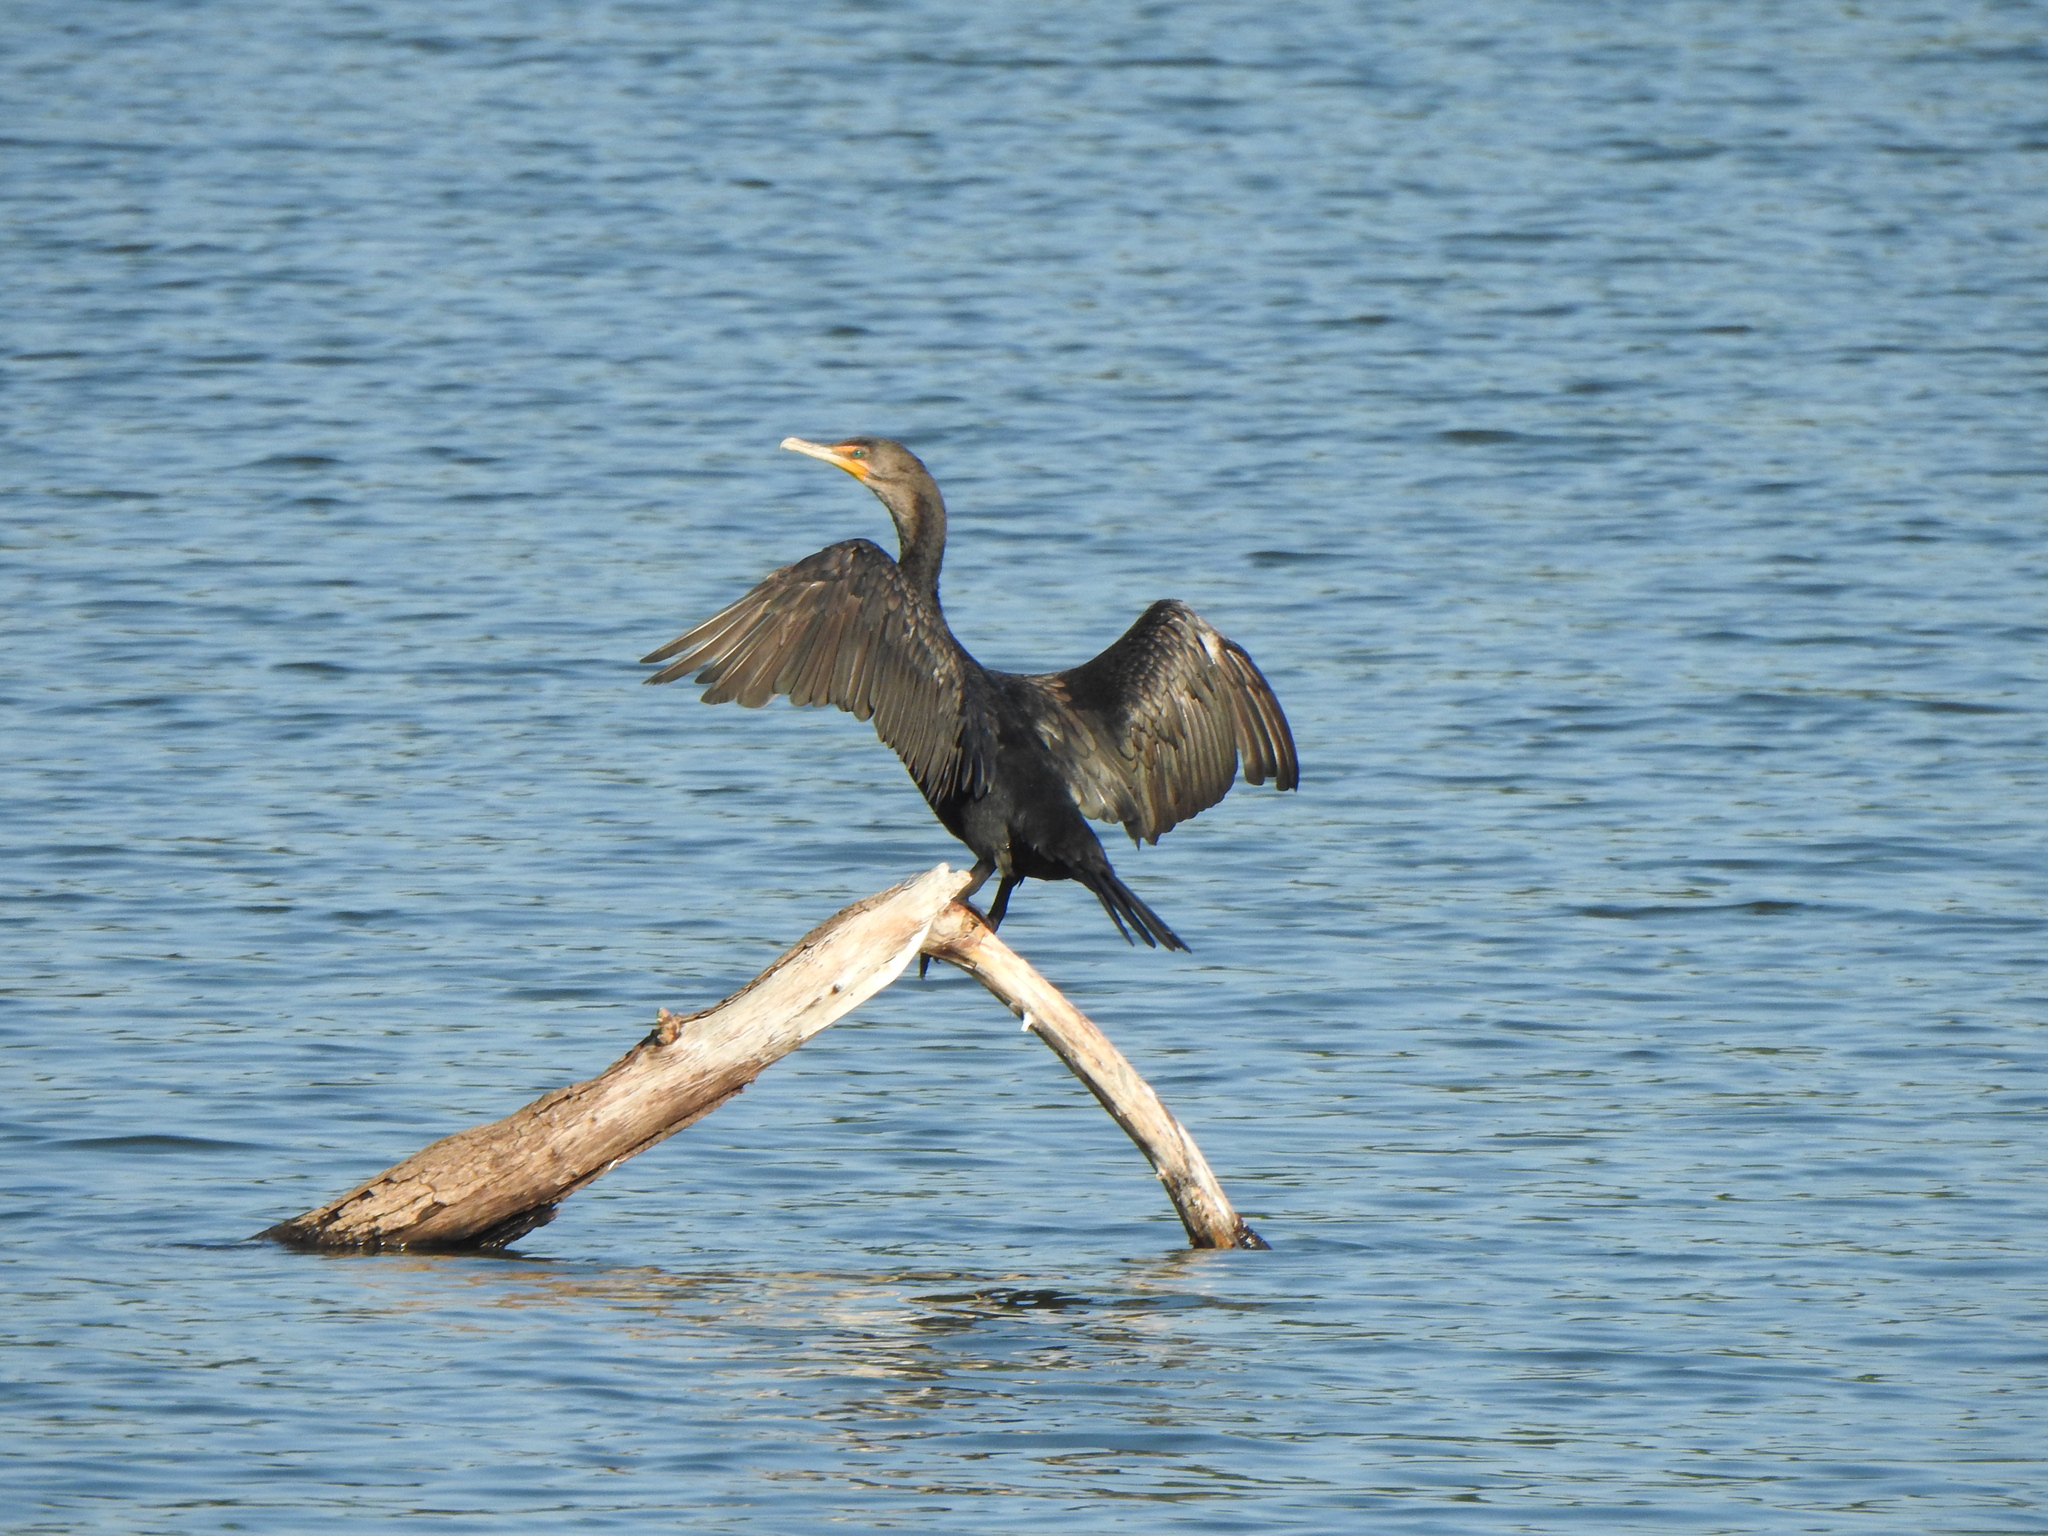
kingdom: Animalia
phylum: Chordata
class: Aves
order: Suliformes
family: Phalacrocoracidae
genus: Phalacrocorax
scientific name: Phalacrocorax auritus
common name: Double-crested cormorant
